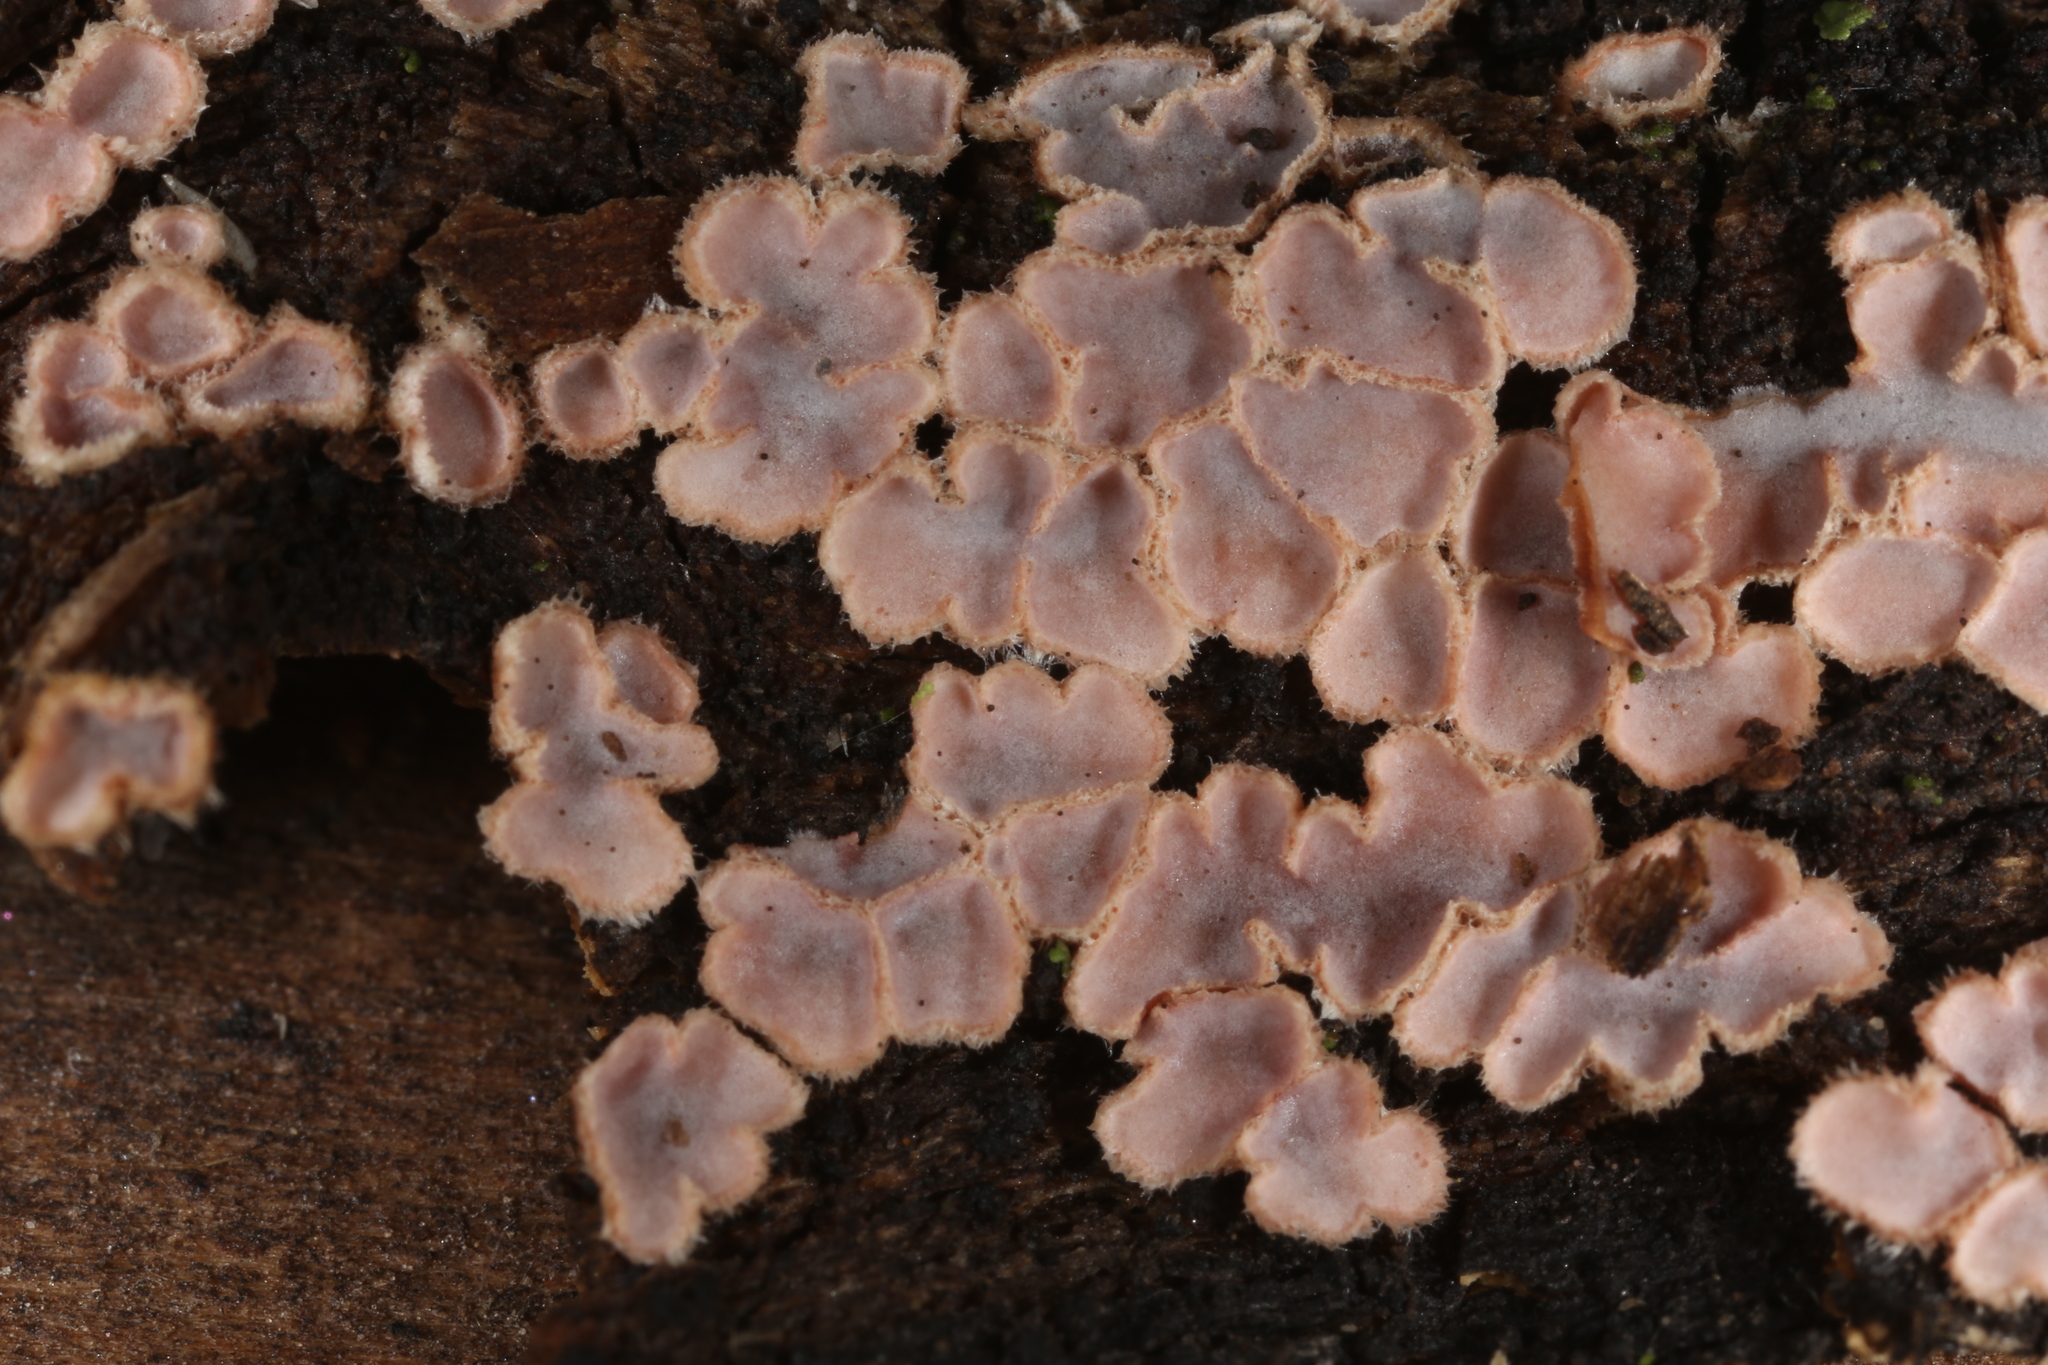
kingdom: Fungi
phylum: Basidiomycota
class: Agaricomycetes
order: Auriculariales
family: Auriculariaceae
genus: Amphistereum
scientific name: Amphistereum schrenkii
